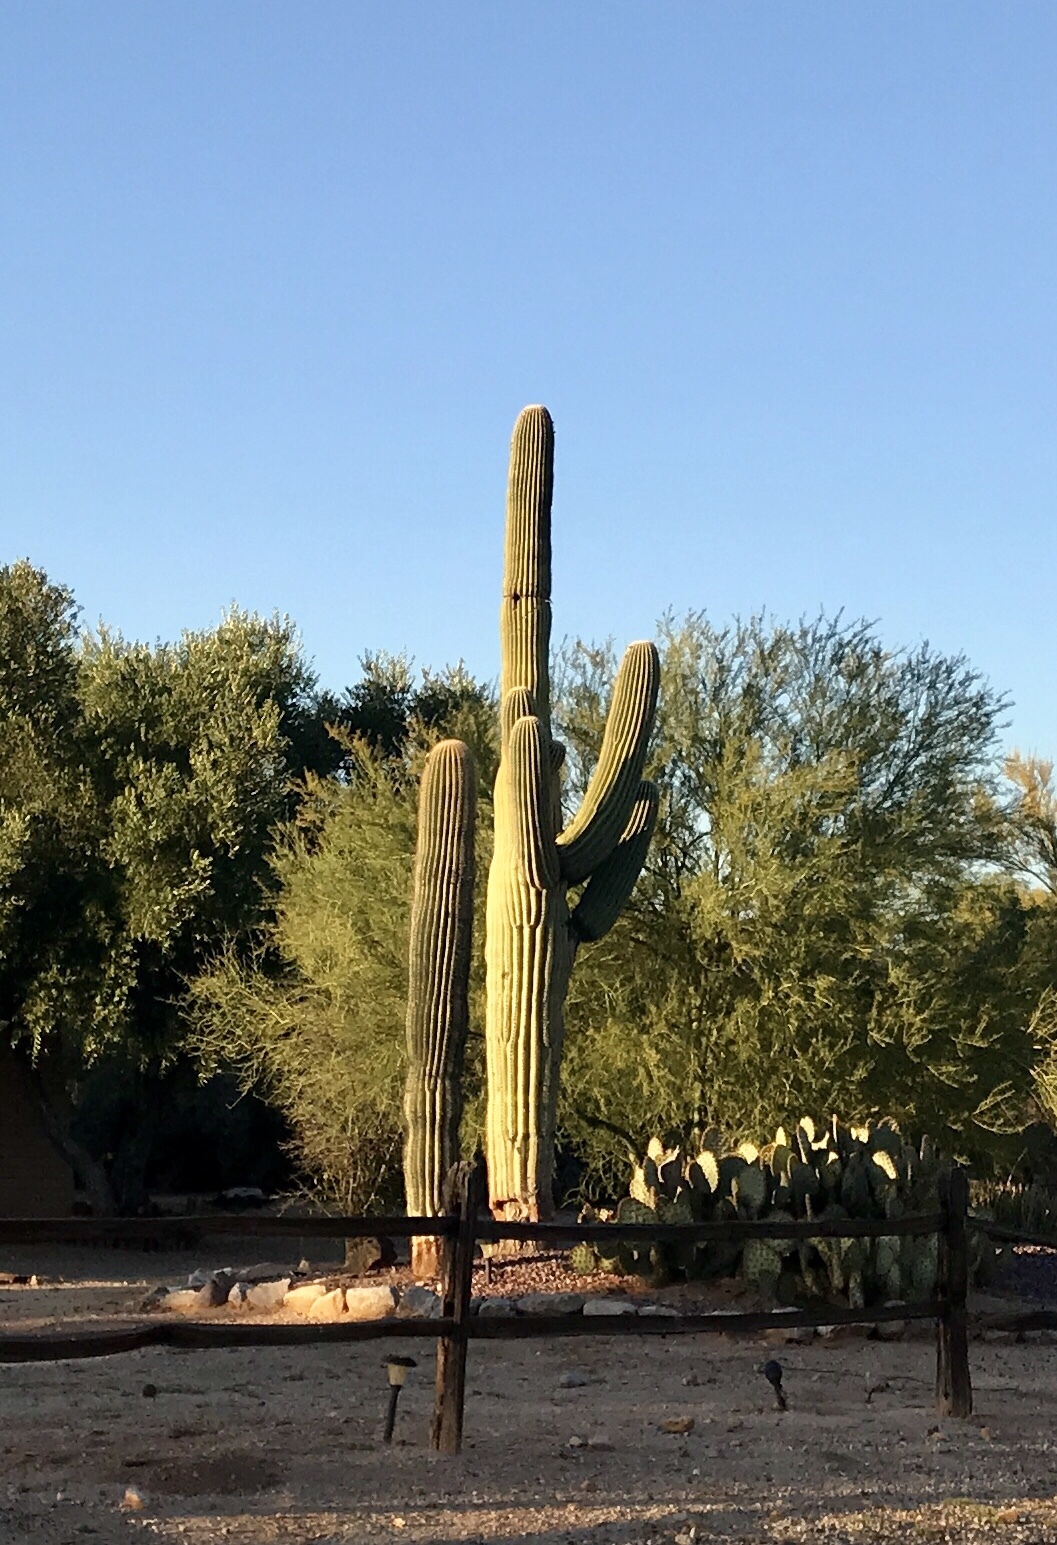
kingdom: Plantae
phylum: Tracheophyta
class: Magnoliopsida
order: Caryophyllales
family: Cactaceae
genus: Carnegiea
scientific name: Carnegiea gigantea
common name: Saguaro
